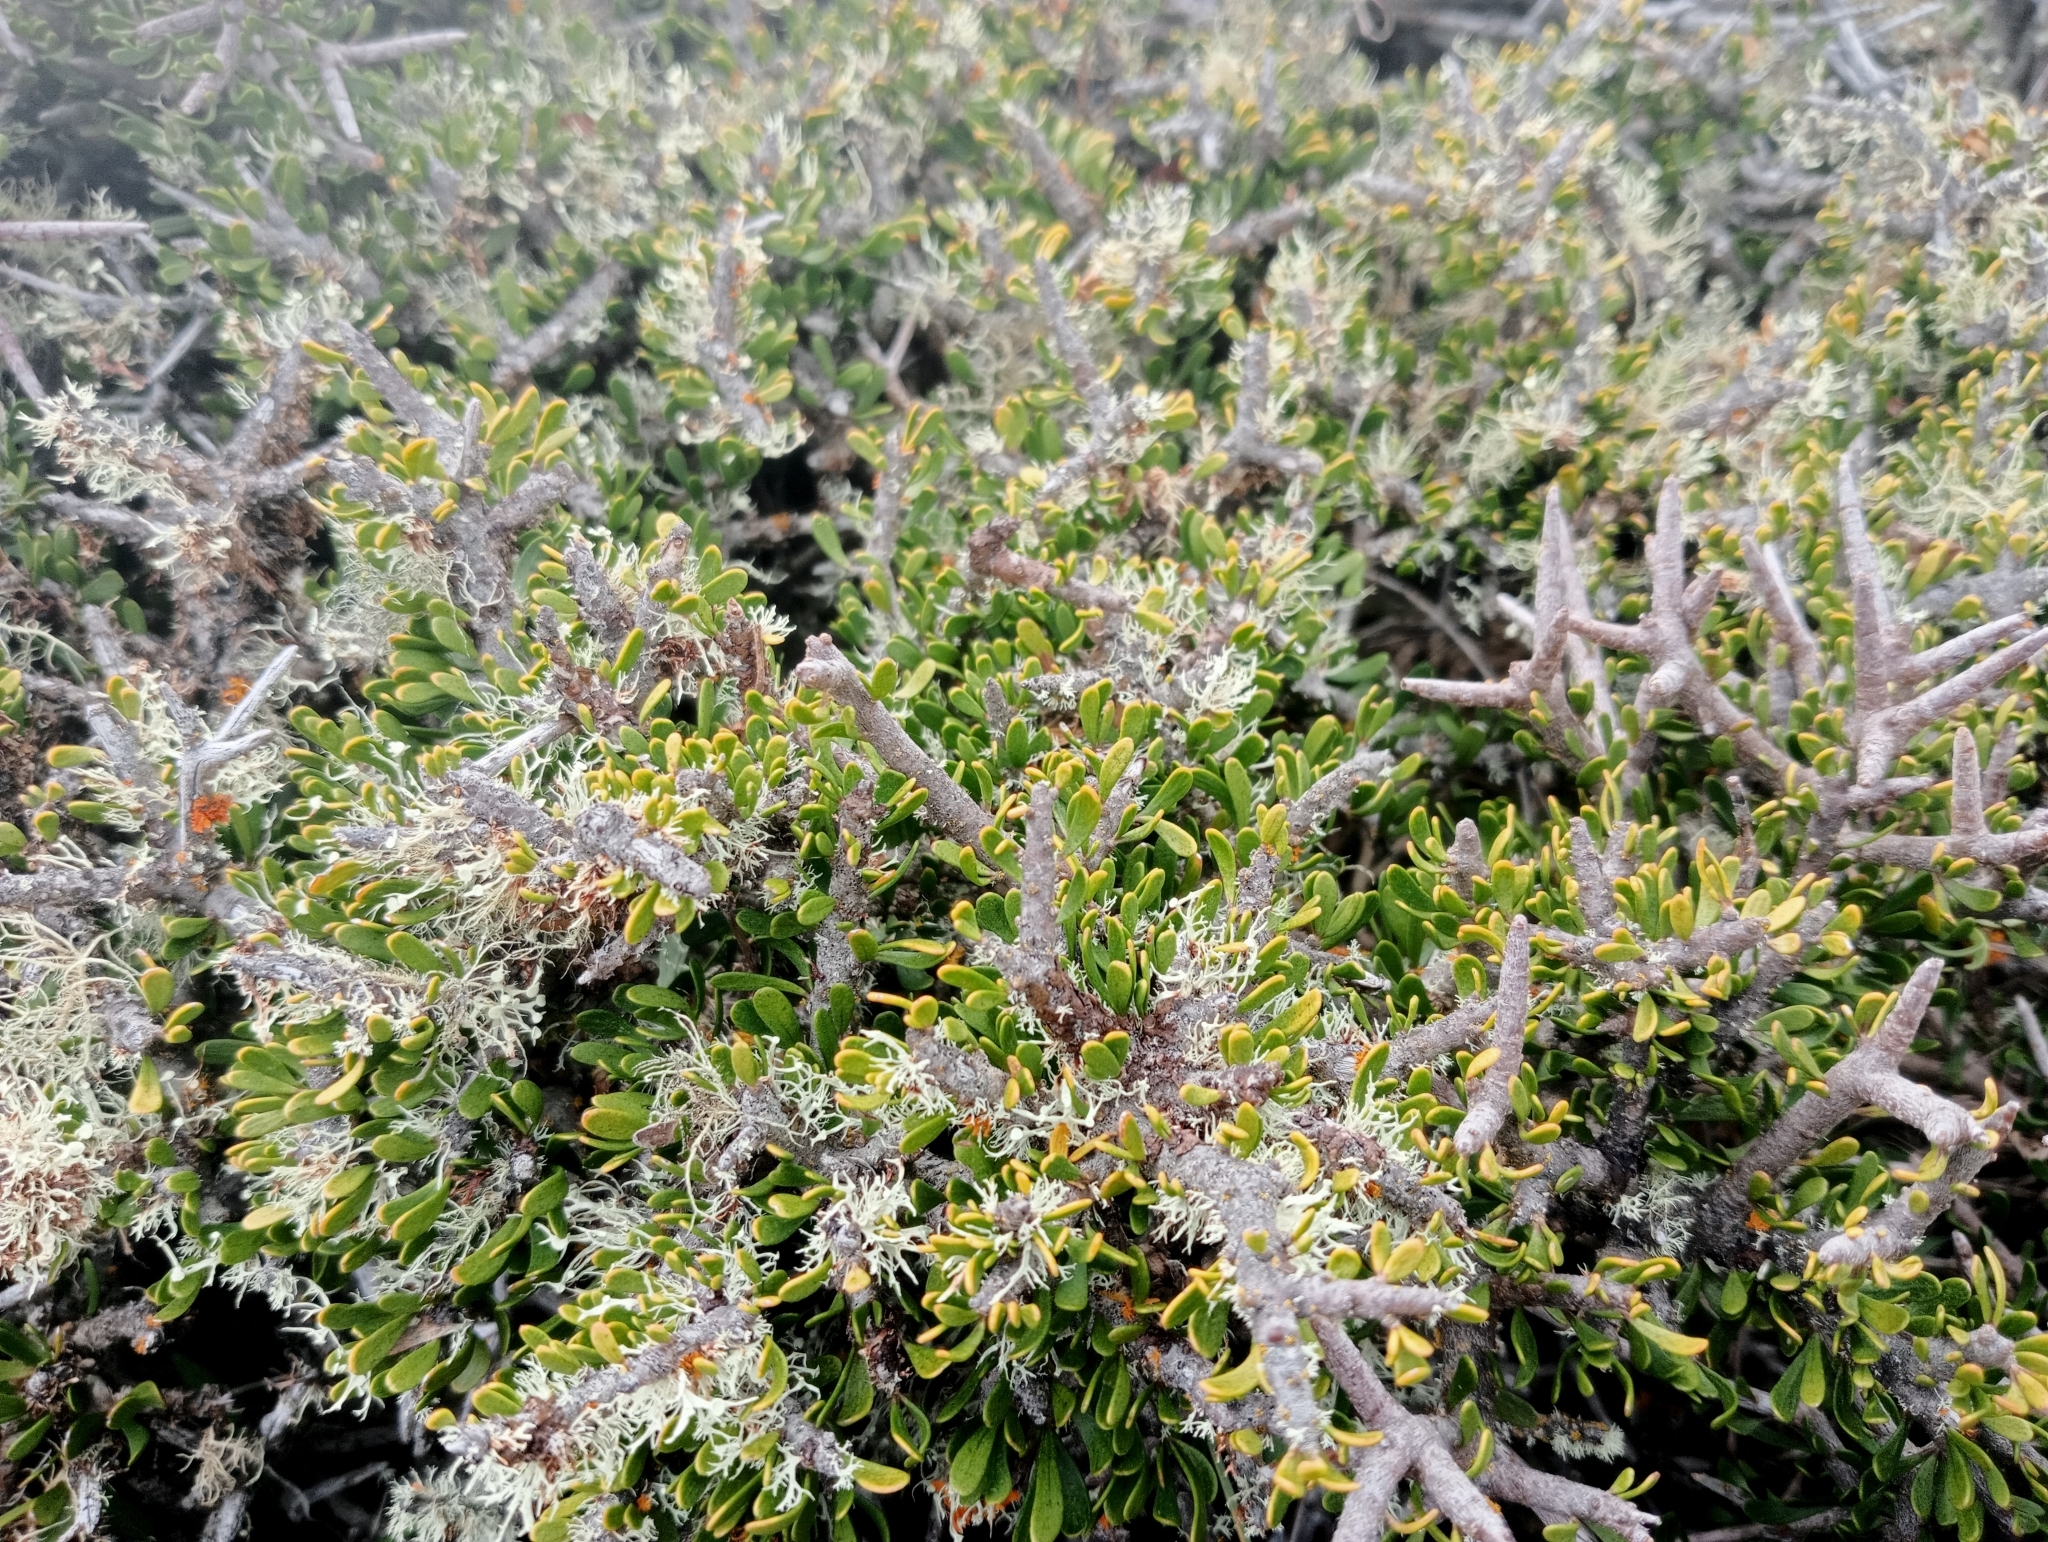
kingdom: Plantae
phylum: Tracheophyta
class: Magnoliopsida
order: Malpighiales
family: Violaceae
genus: Melicytus
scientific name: Melicytus alpinus
